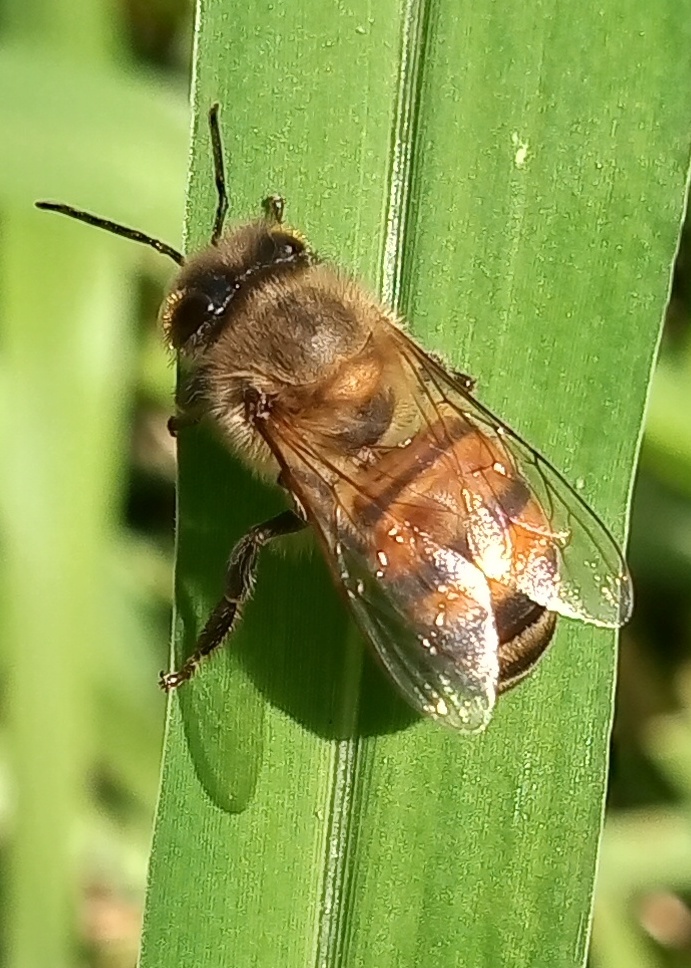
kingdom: Animalia
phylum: Arthropoda
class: Insecta
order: Hymenoptera
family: Apidae
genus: Apis
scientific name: Apis mellifera
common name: Honey bee
